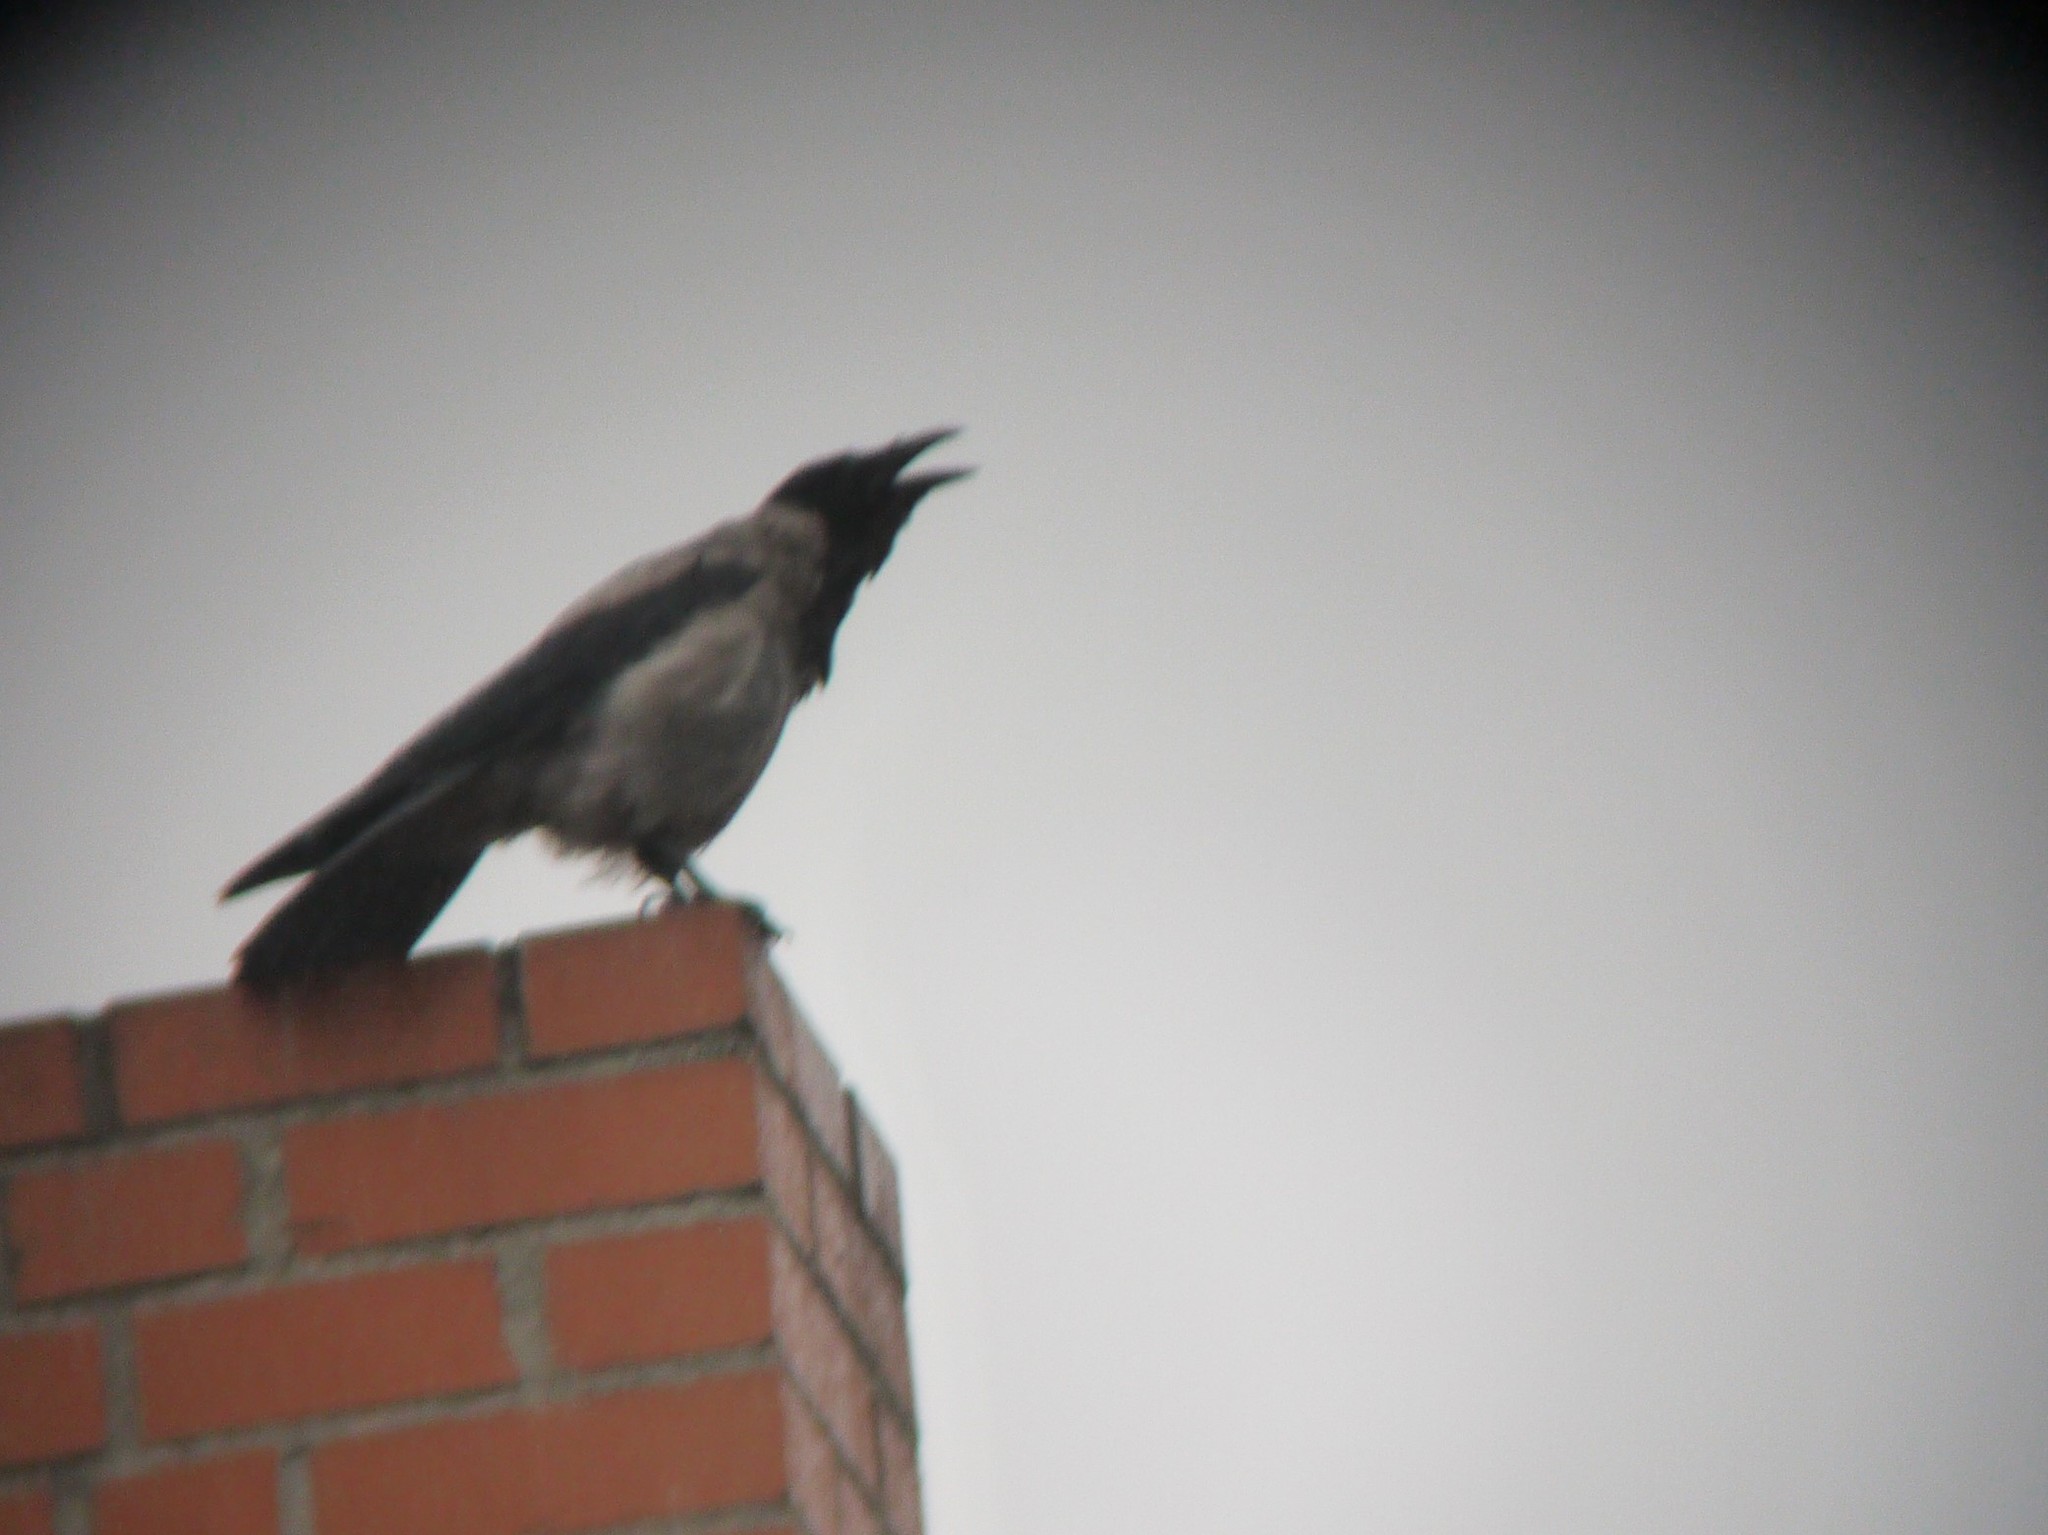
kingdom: Animalia
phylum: Chordata
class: Aves
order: Passeriformes
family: Corvidae
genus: Corvus
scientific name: Corvus cornix
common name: Hooded crow
